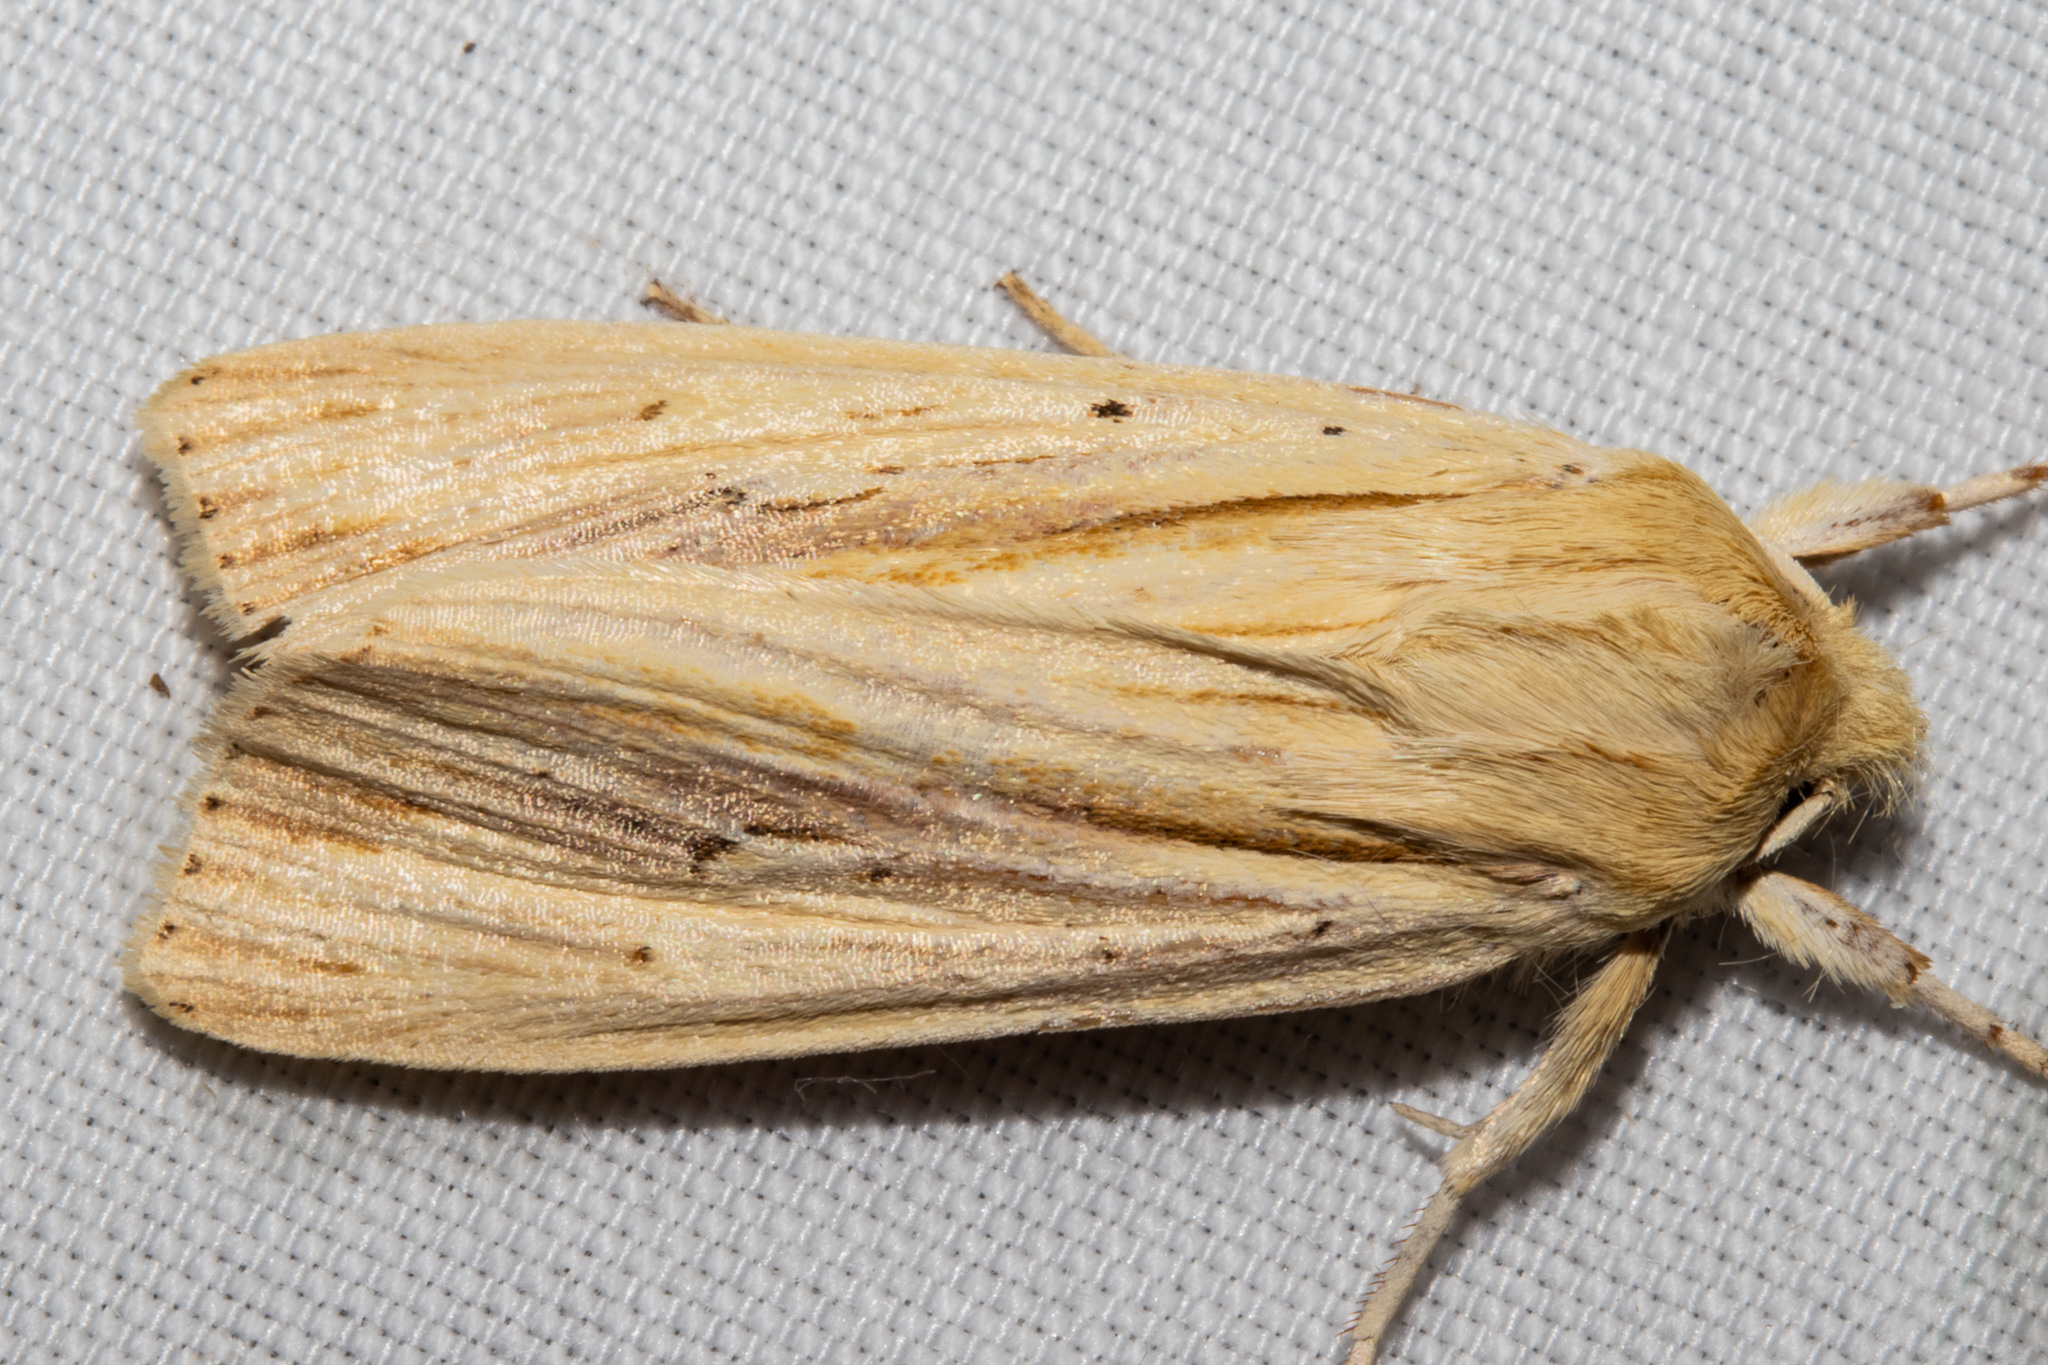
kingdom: Animalia
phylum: Arthropoda
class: Insecta
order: Lepidoptera
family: Noctuidae
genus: Ichneutica
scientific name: Ichneutica semivittata
